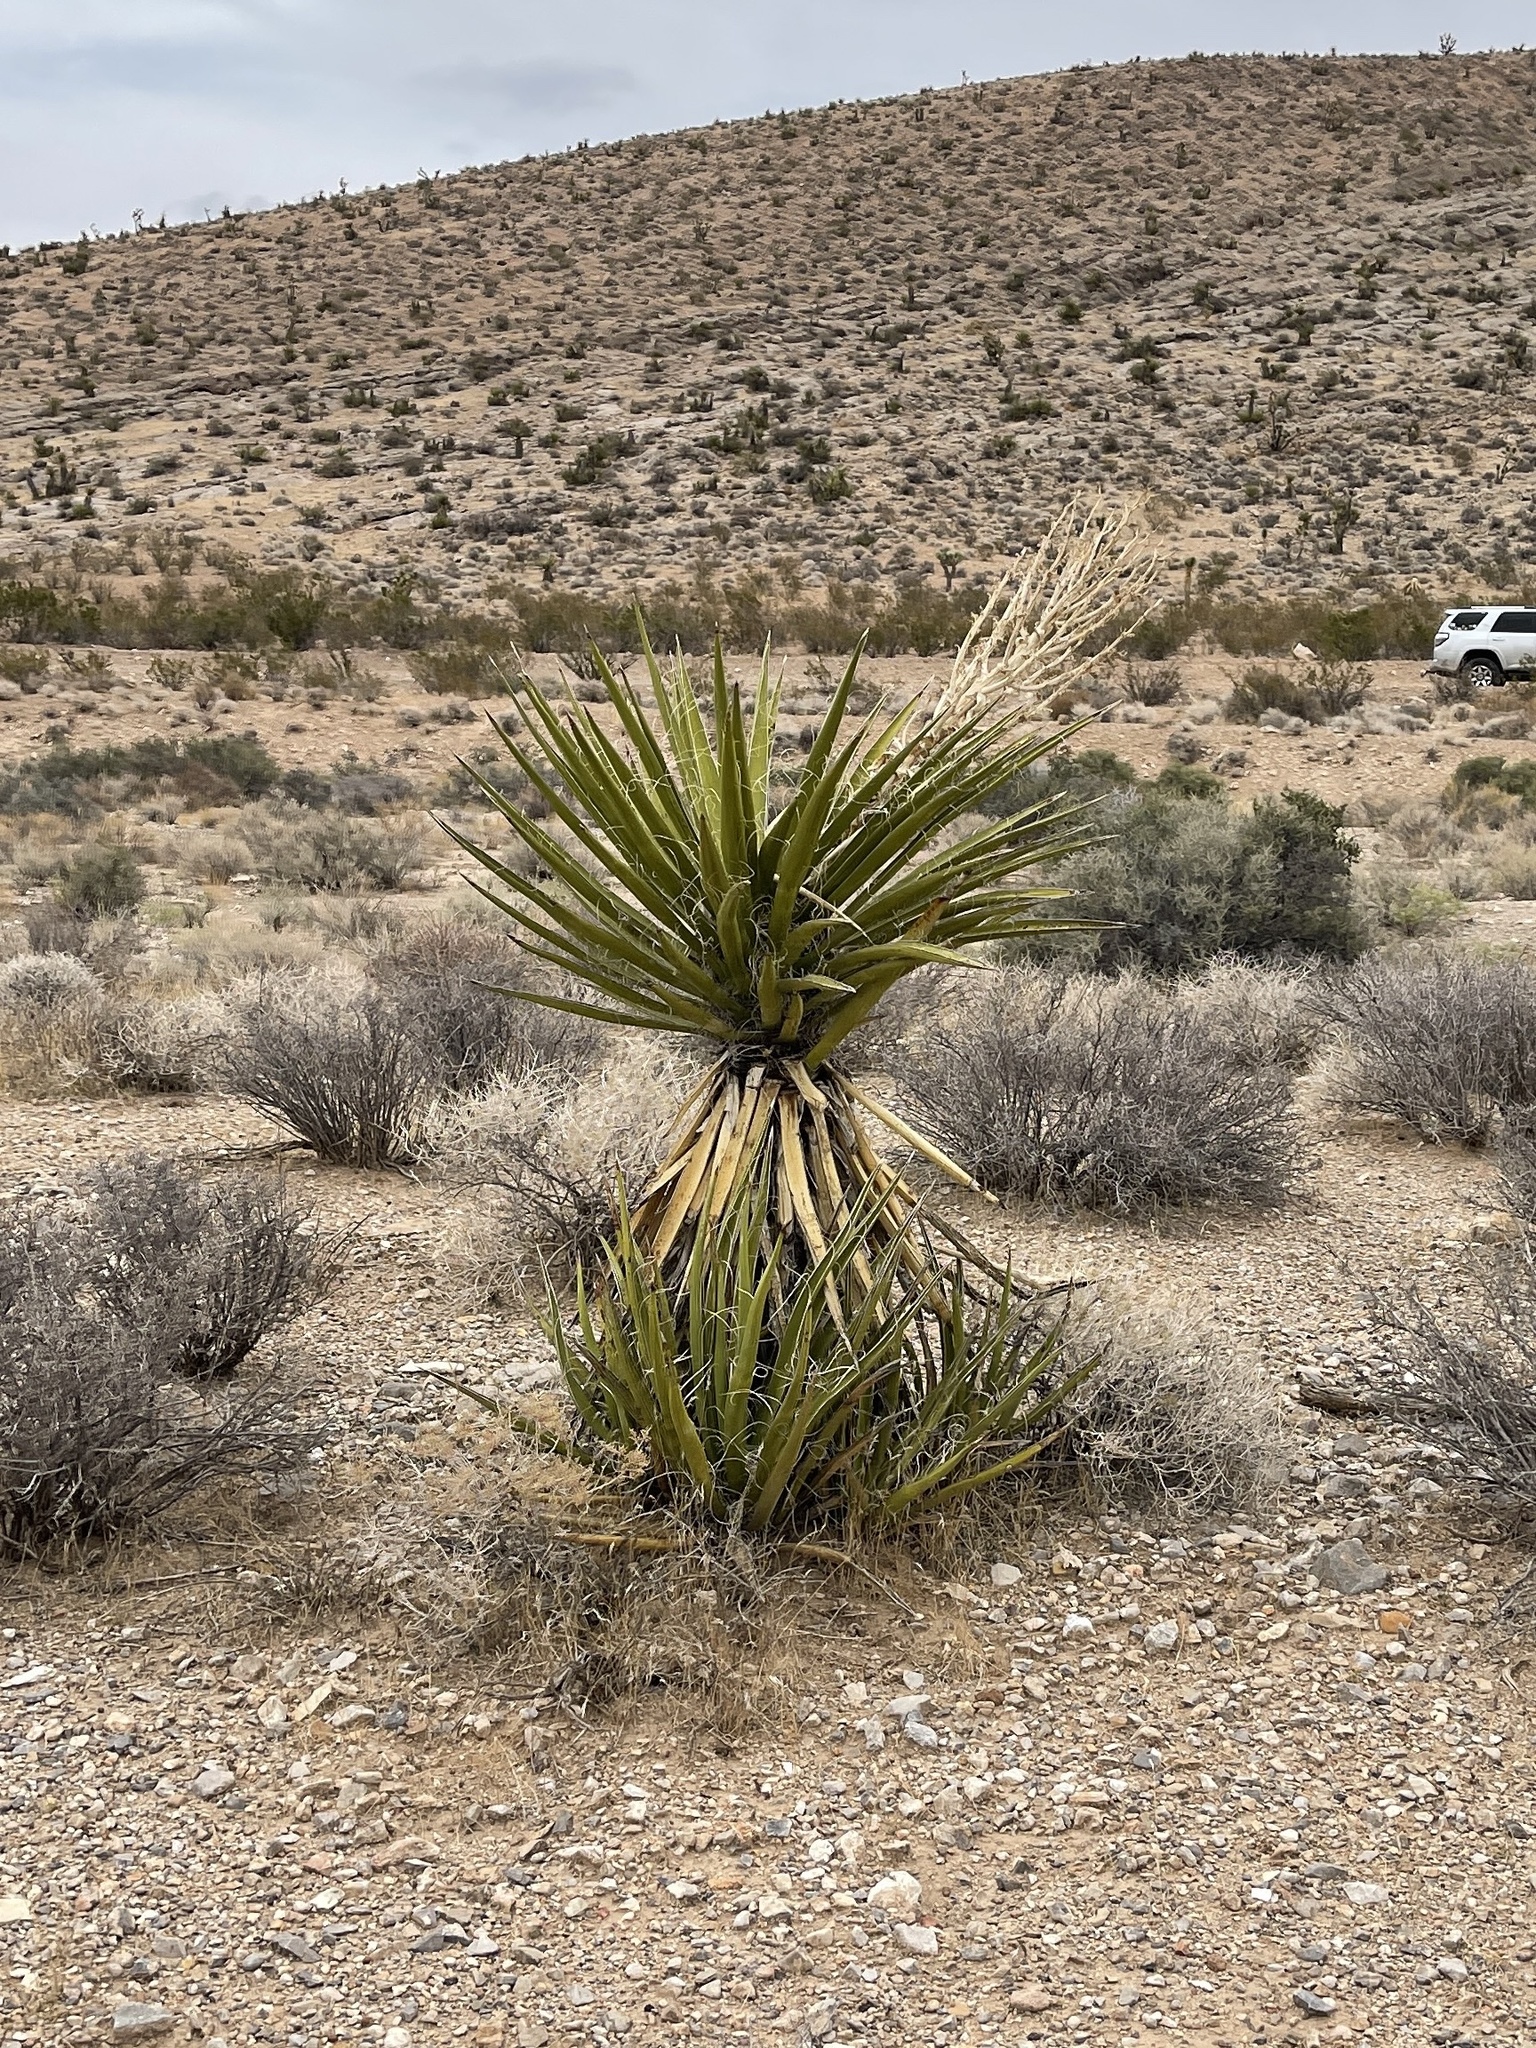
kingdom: Plantae
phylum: Tracheophyta
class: Liliopsida
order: Asparagales
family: Asparagaceae
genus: Yucca
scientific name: Yucca schidigera
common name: Mojave yucca
